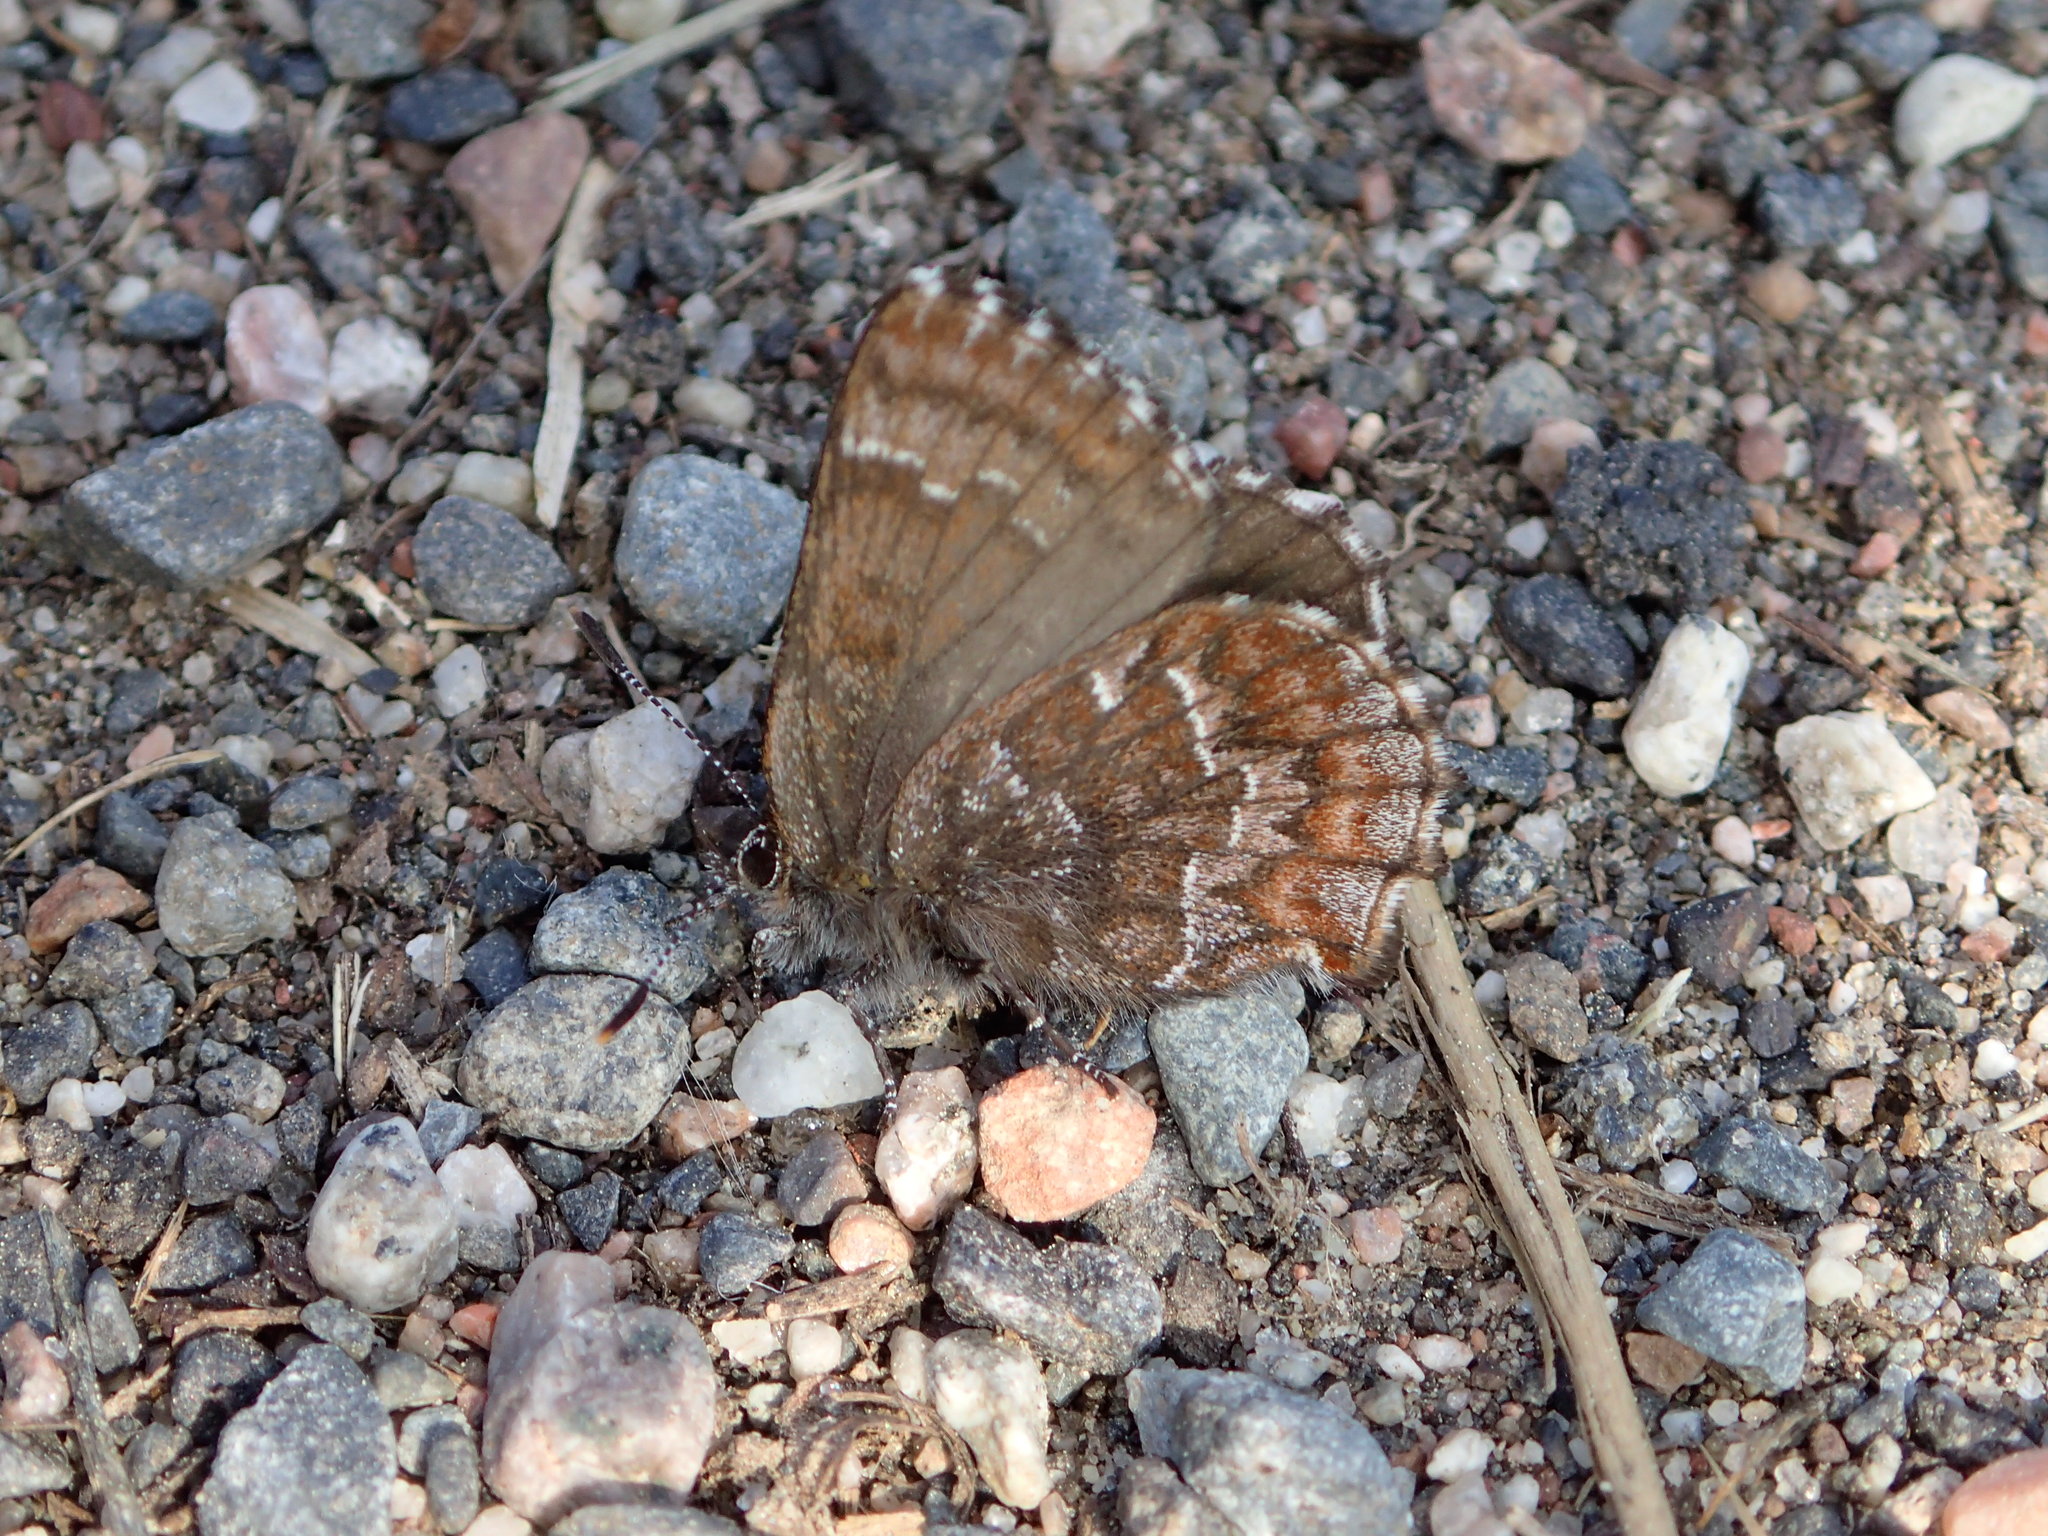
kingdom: Animalia
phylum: Arthropoda
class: Insecta
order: Lepidoptera
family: Lycaenidae
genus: Incisalia
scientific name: Incisalia niphon
